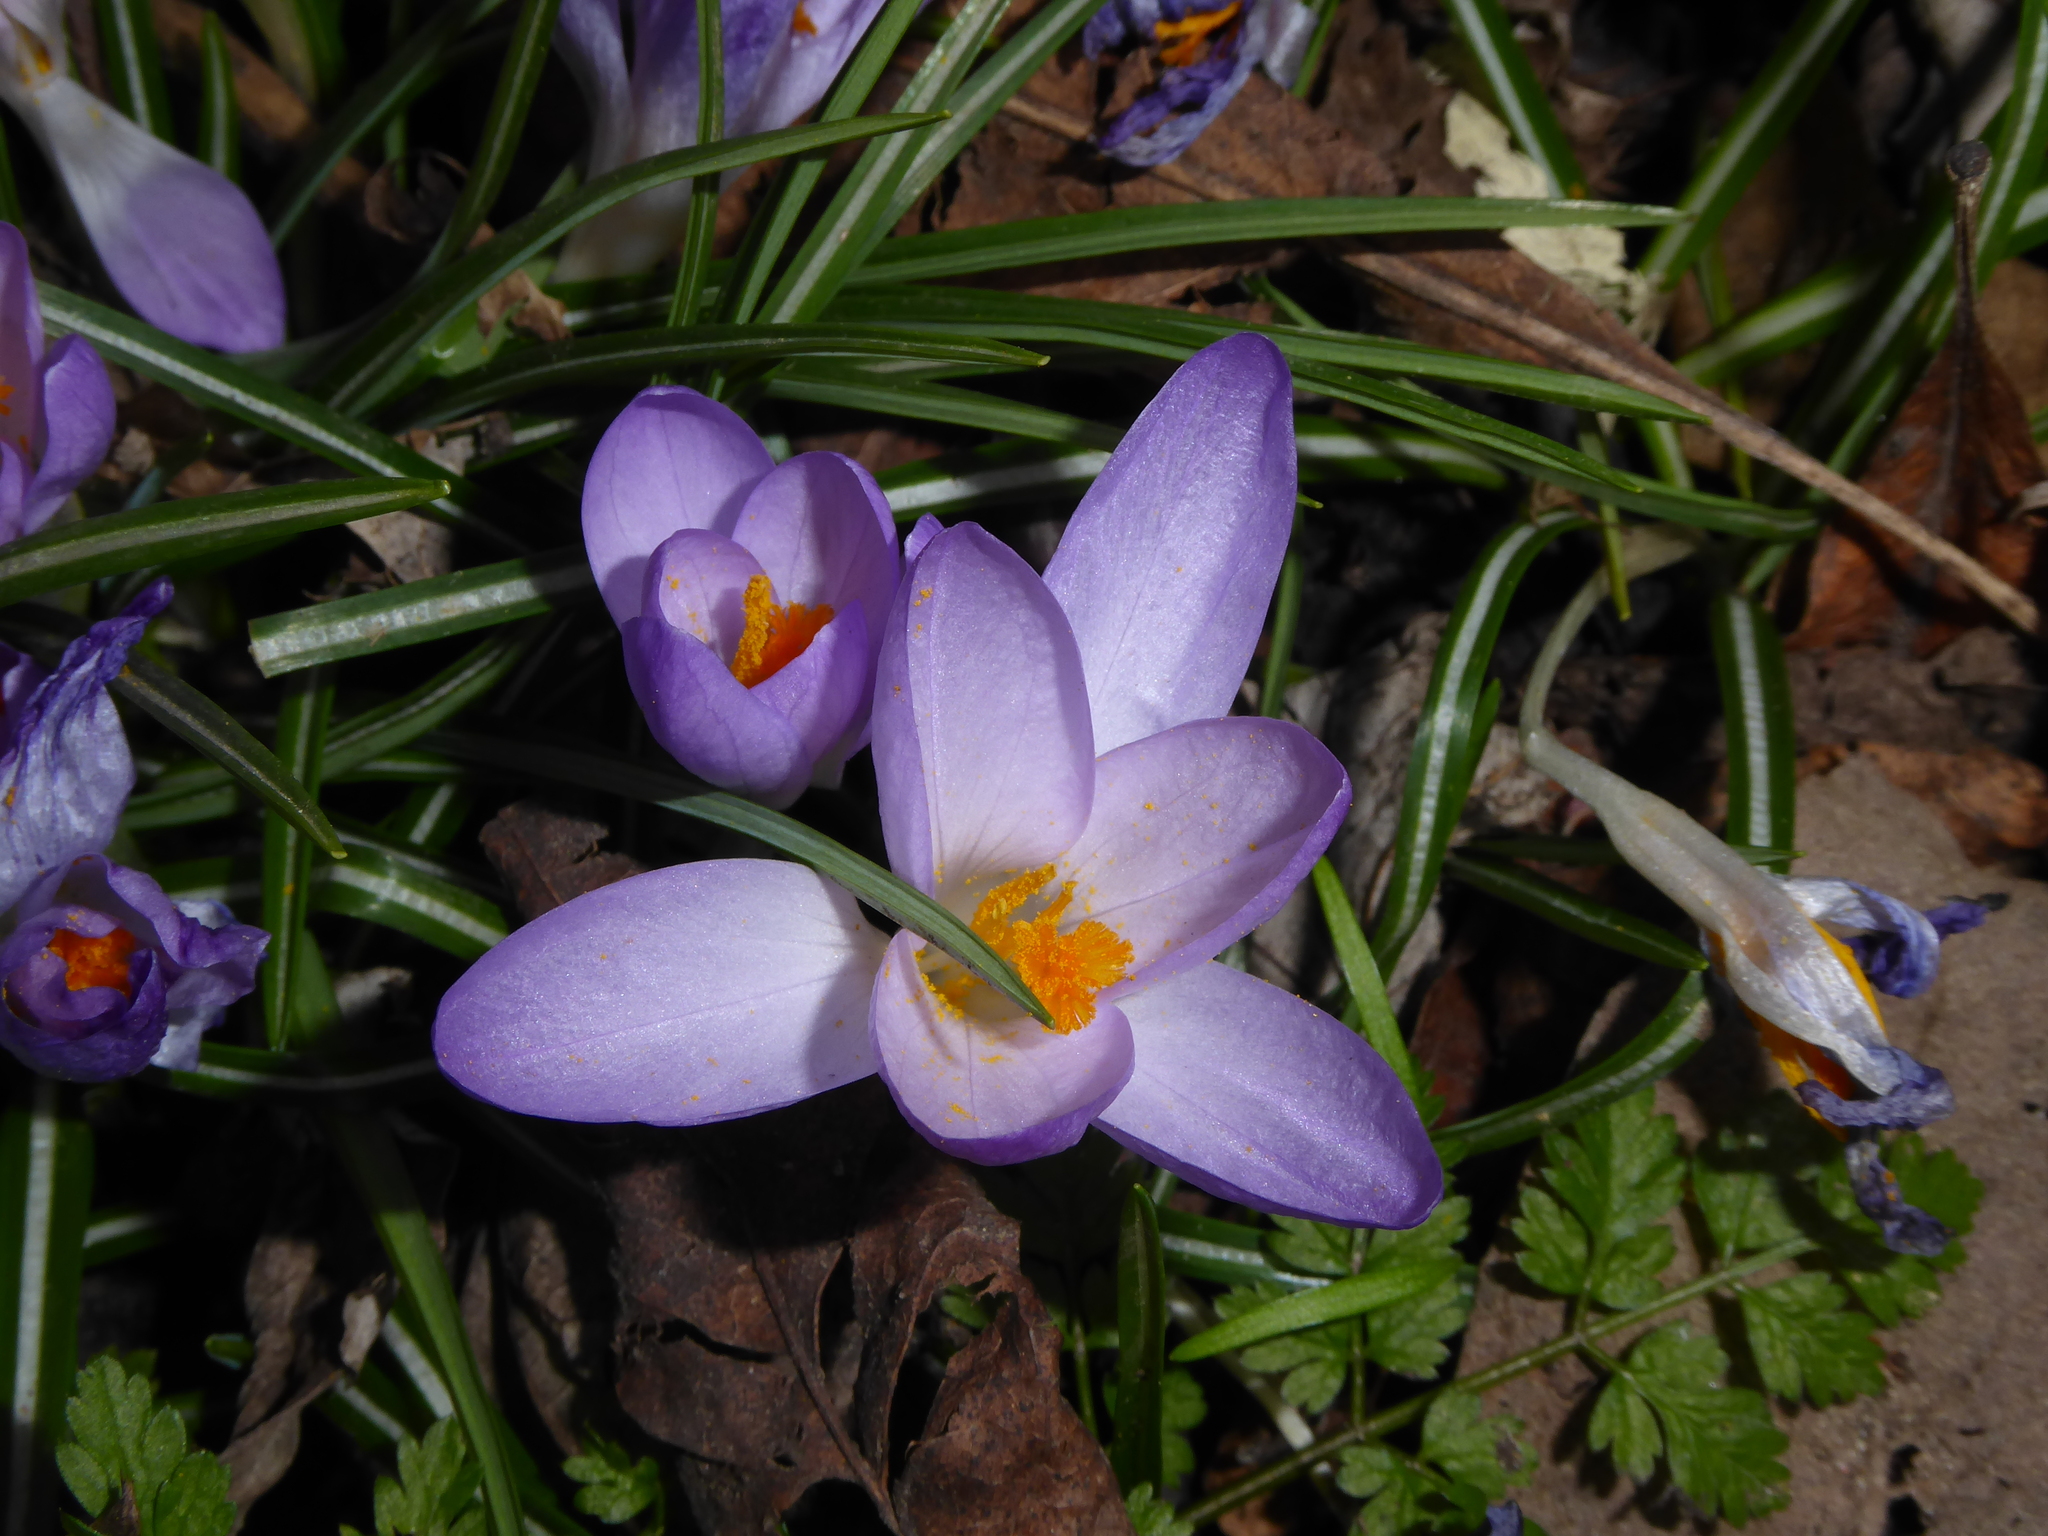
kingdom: Plantae
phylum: Tracheophyta
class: Liliopsida
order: Asparagales
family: Iridaceae
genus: Crocus
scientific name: Crocus tommasinianus
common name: Early crocus
